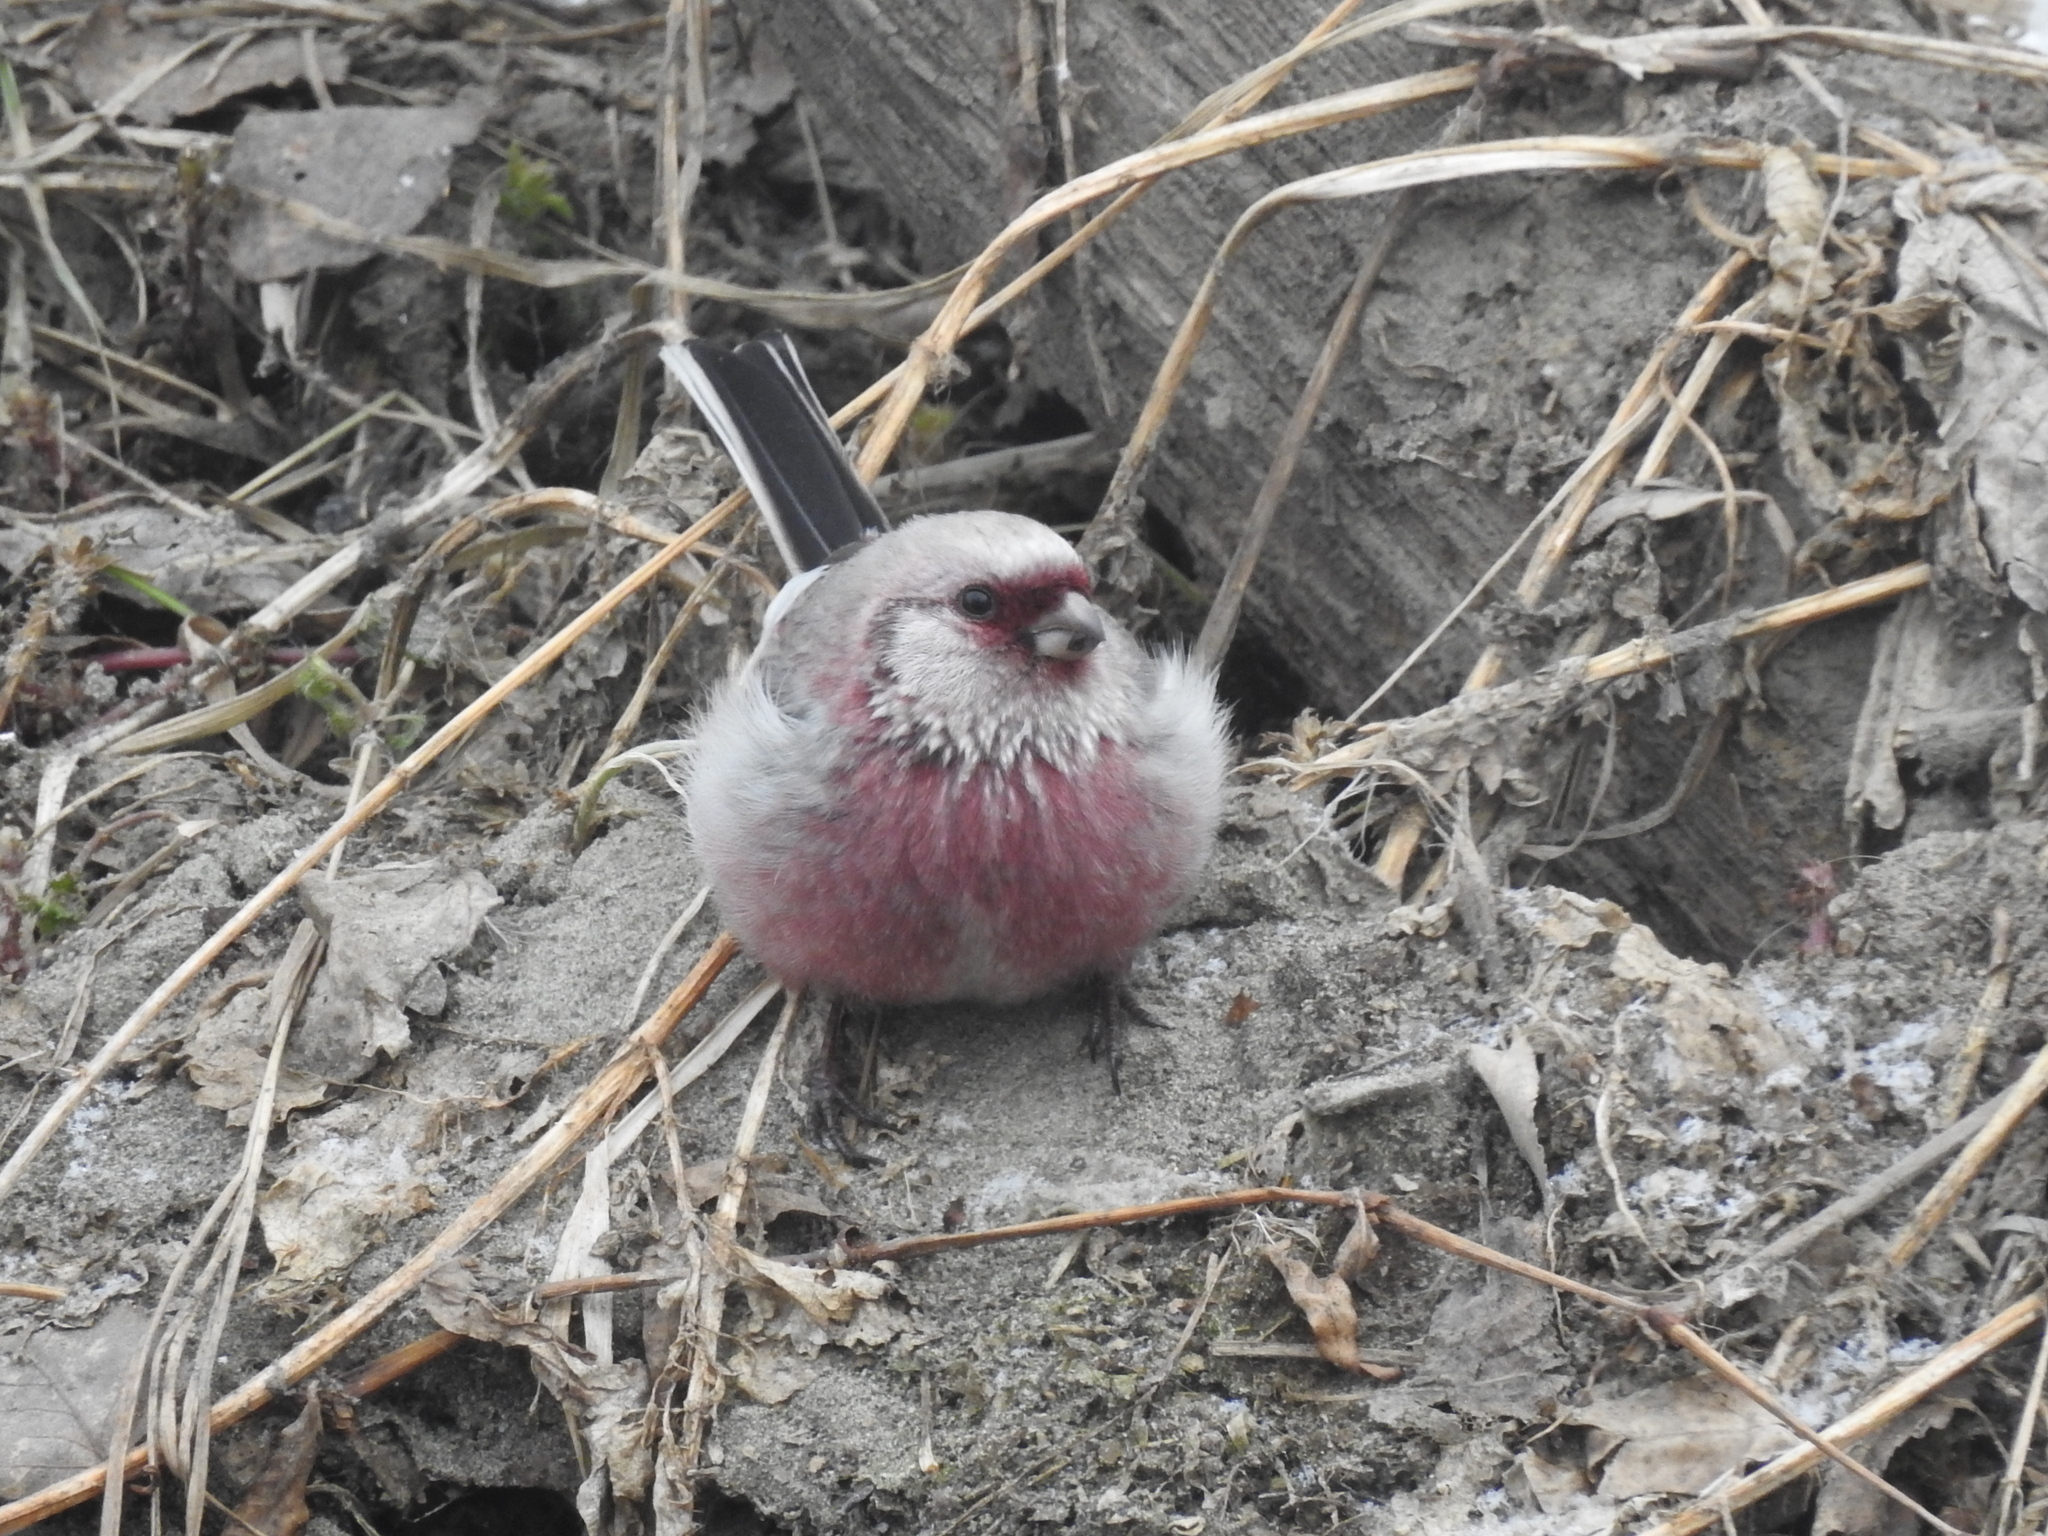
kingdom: Animalia
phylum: Chordata
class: Aves
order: Passeriformes
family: Fringillidae
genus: Carpodacus
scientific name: Carpodacus sibiricus
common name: Long-tailed rosefinch
